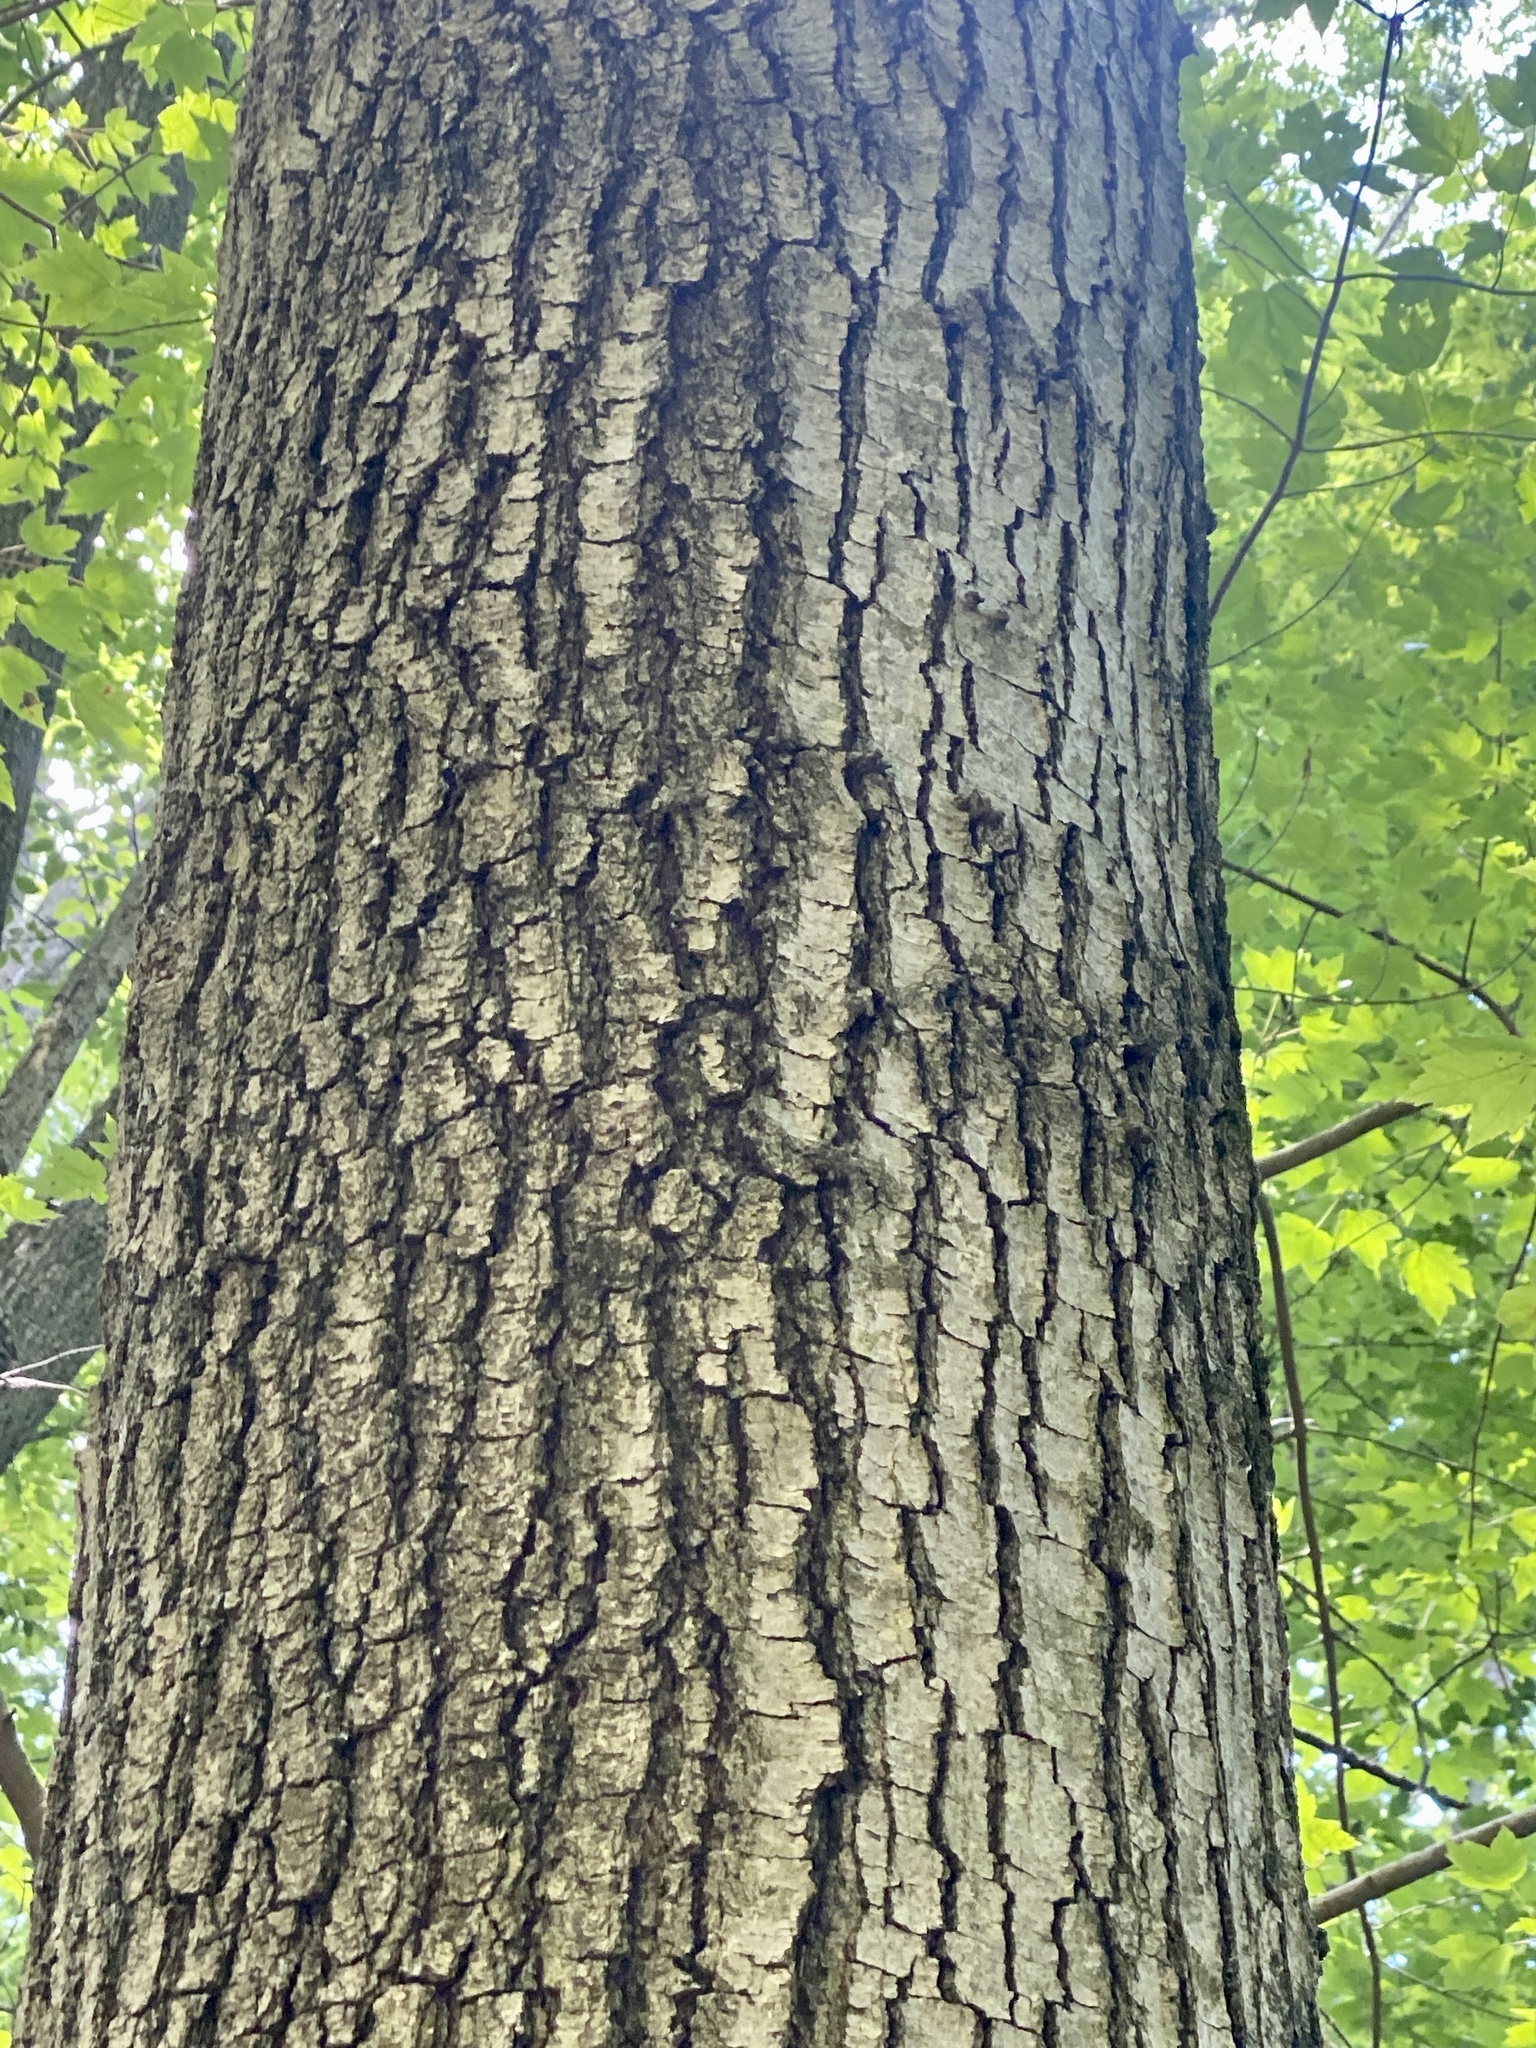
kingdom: Plantae
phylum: Tracheophyta
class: Magnoliopsida
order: Fagales
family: Fagaceae
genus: Quercus
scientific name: Quercus rubra
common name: Red oak
